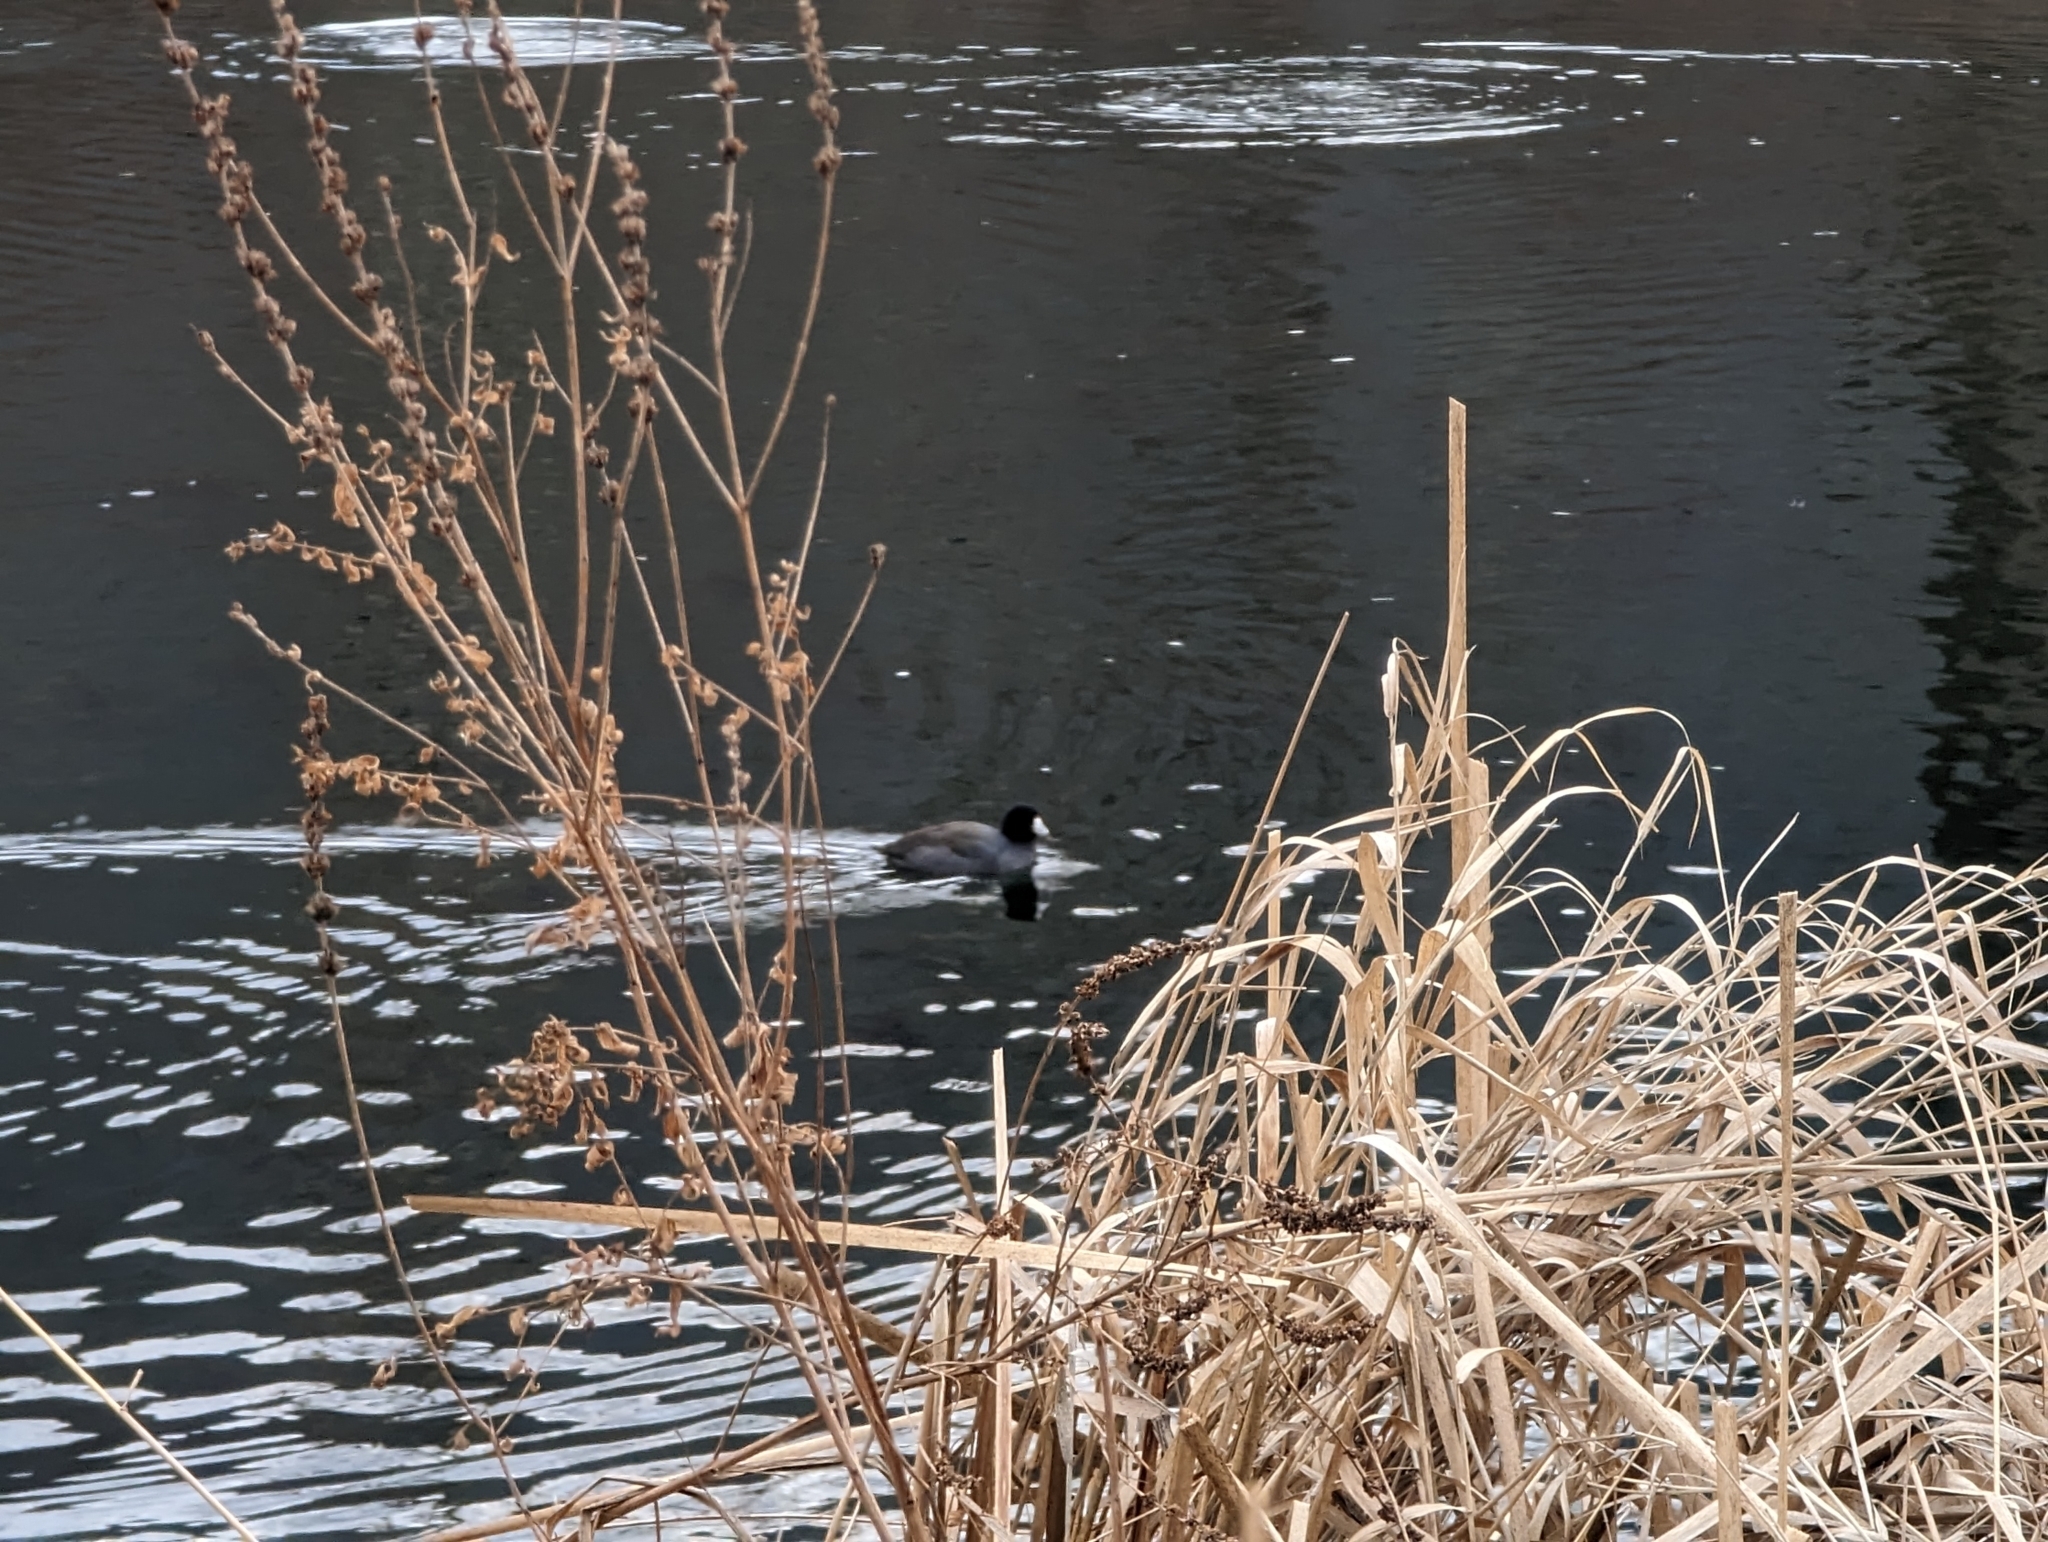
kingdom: Animalia
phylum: Chordata
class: Aves
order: Gruiformes
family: Rallidae
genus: Fulica
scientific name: Fulica americana
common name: American coot
